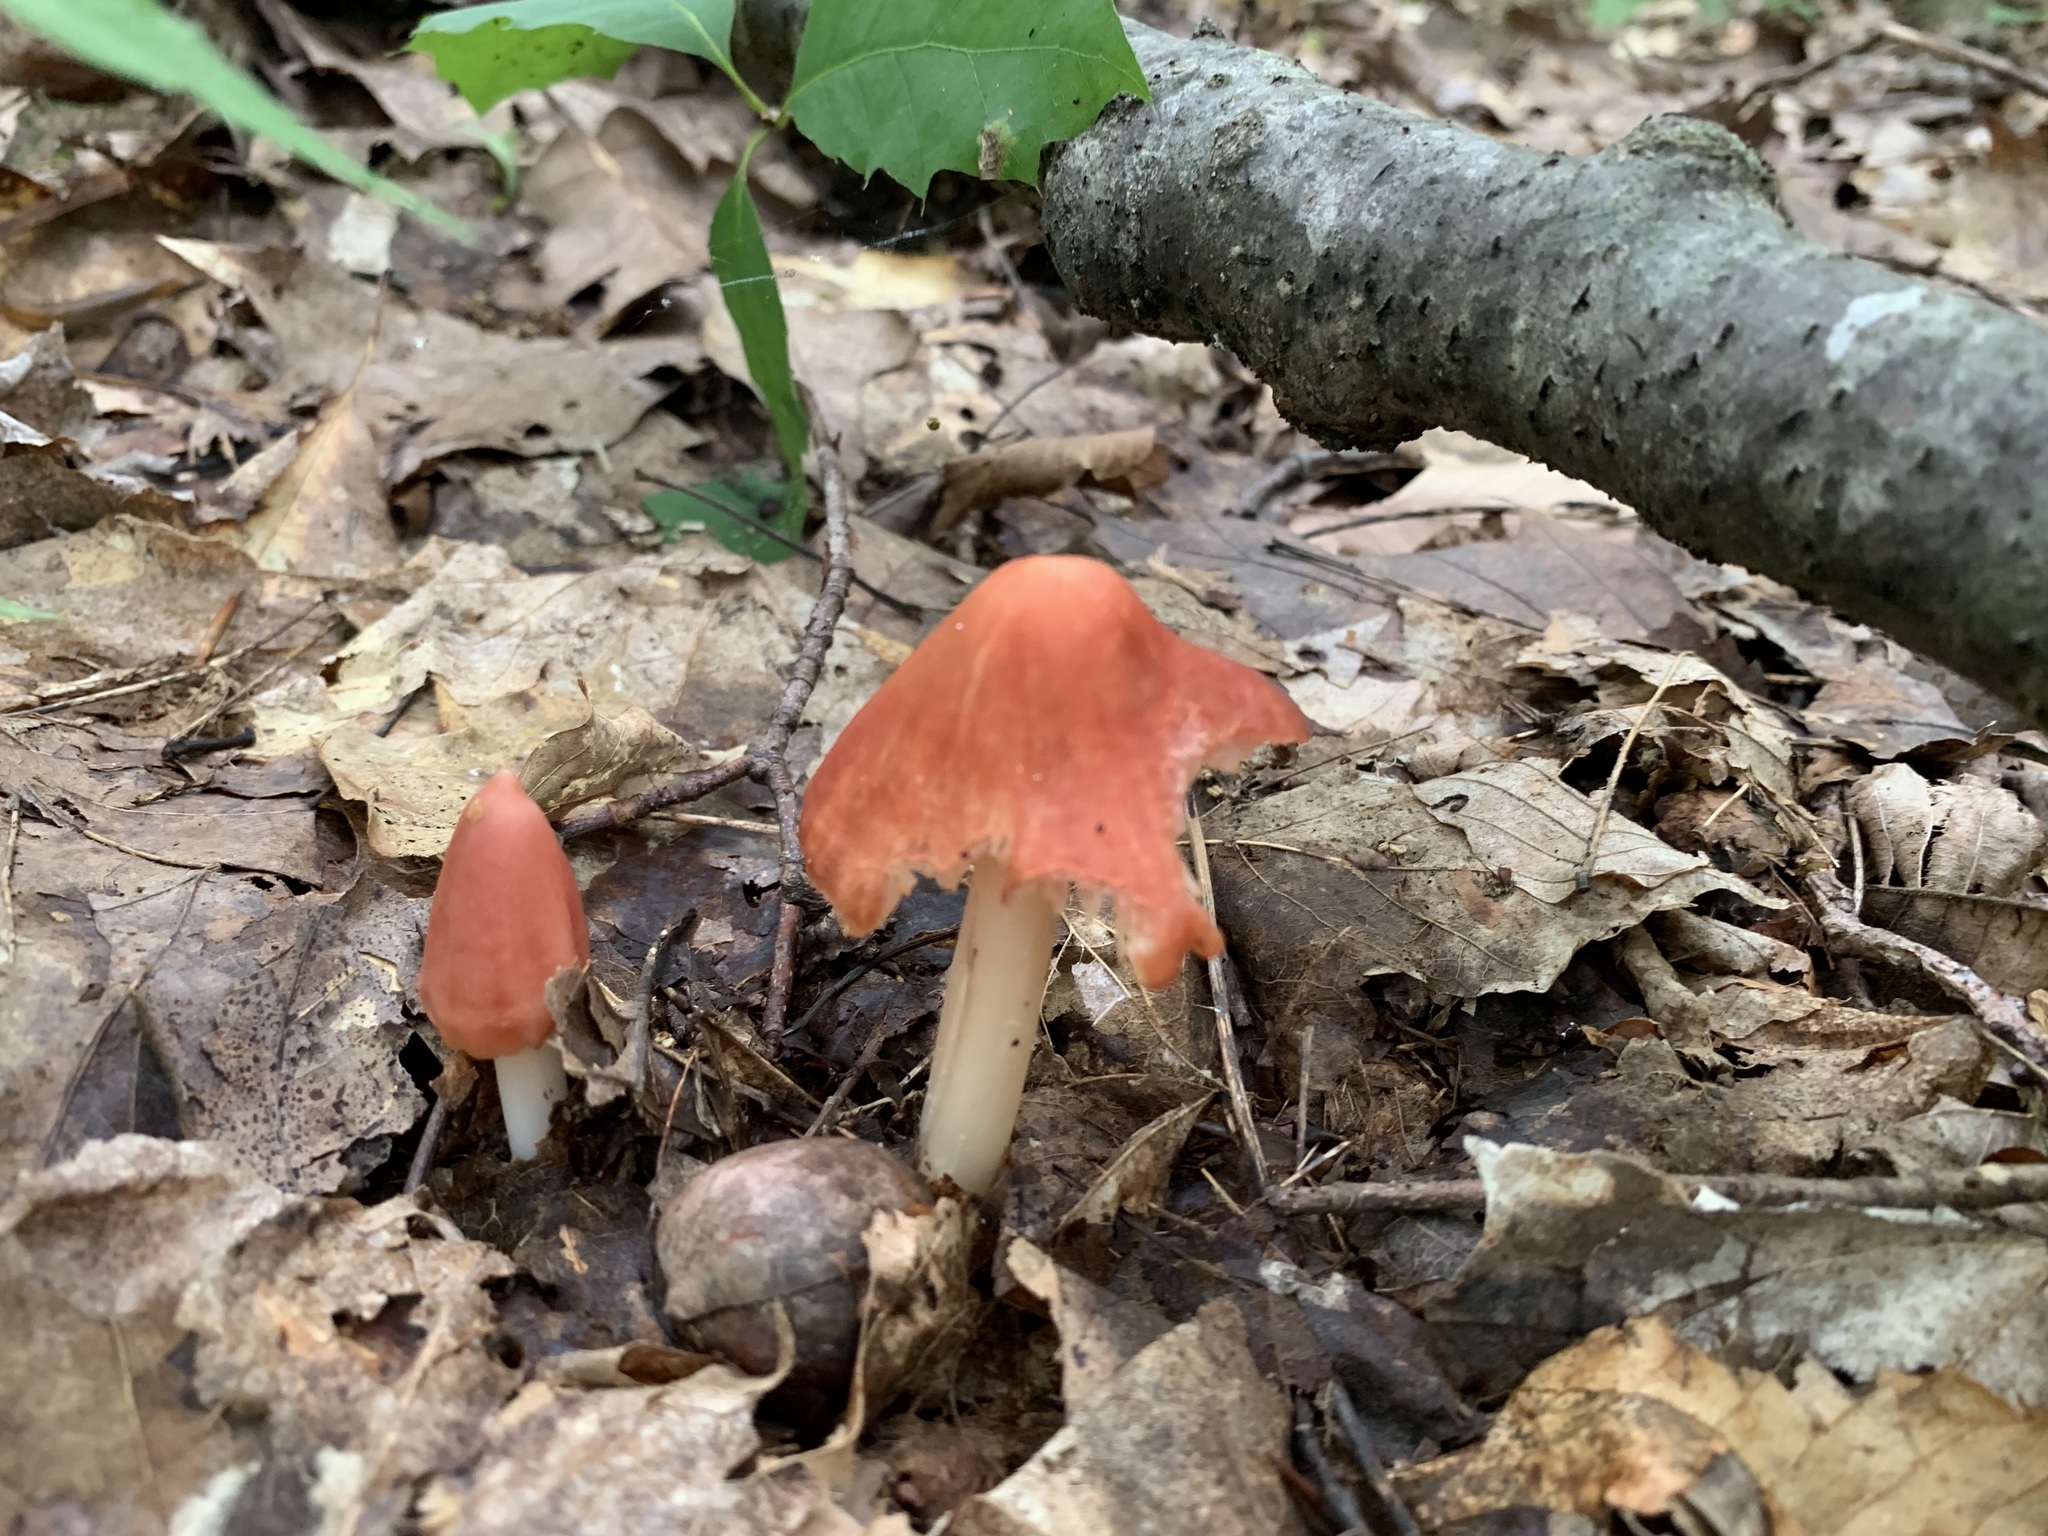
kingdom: Fungi
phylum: Basidiomycota
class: Agaricomycetes
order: Agaricales
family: Hygrophoraceae
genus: Porpolomopsis
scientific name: Porpolomopsis calyptriformis
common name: Pink waxcap
